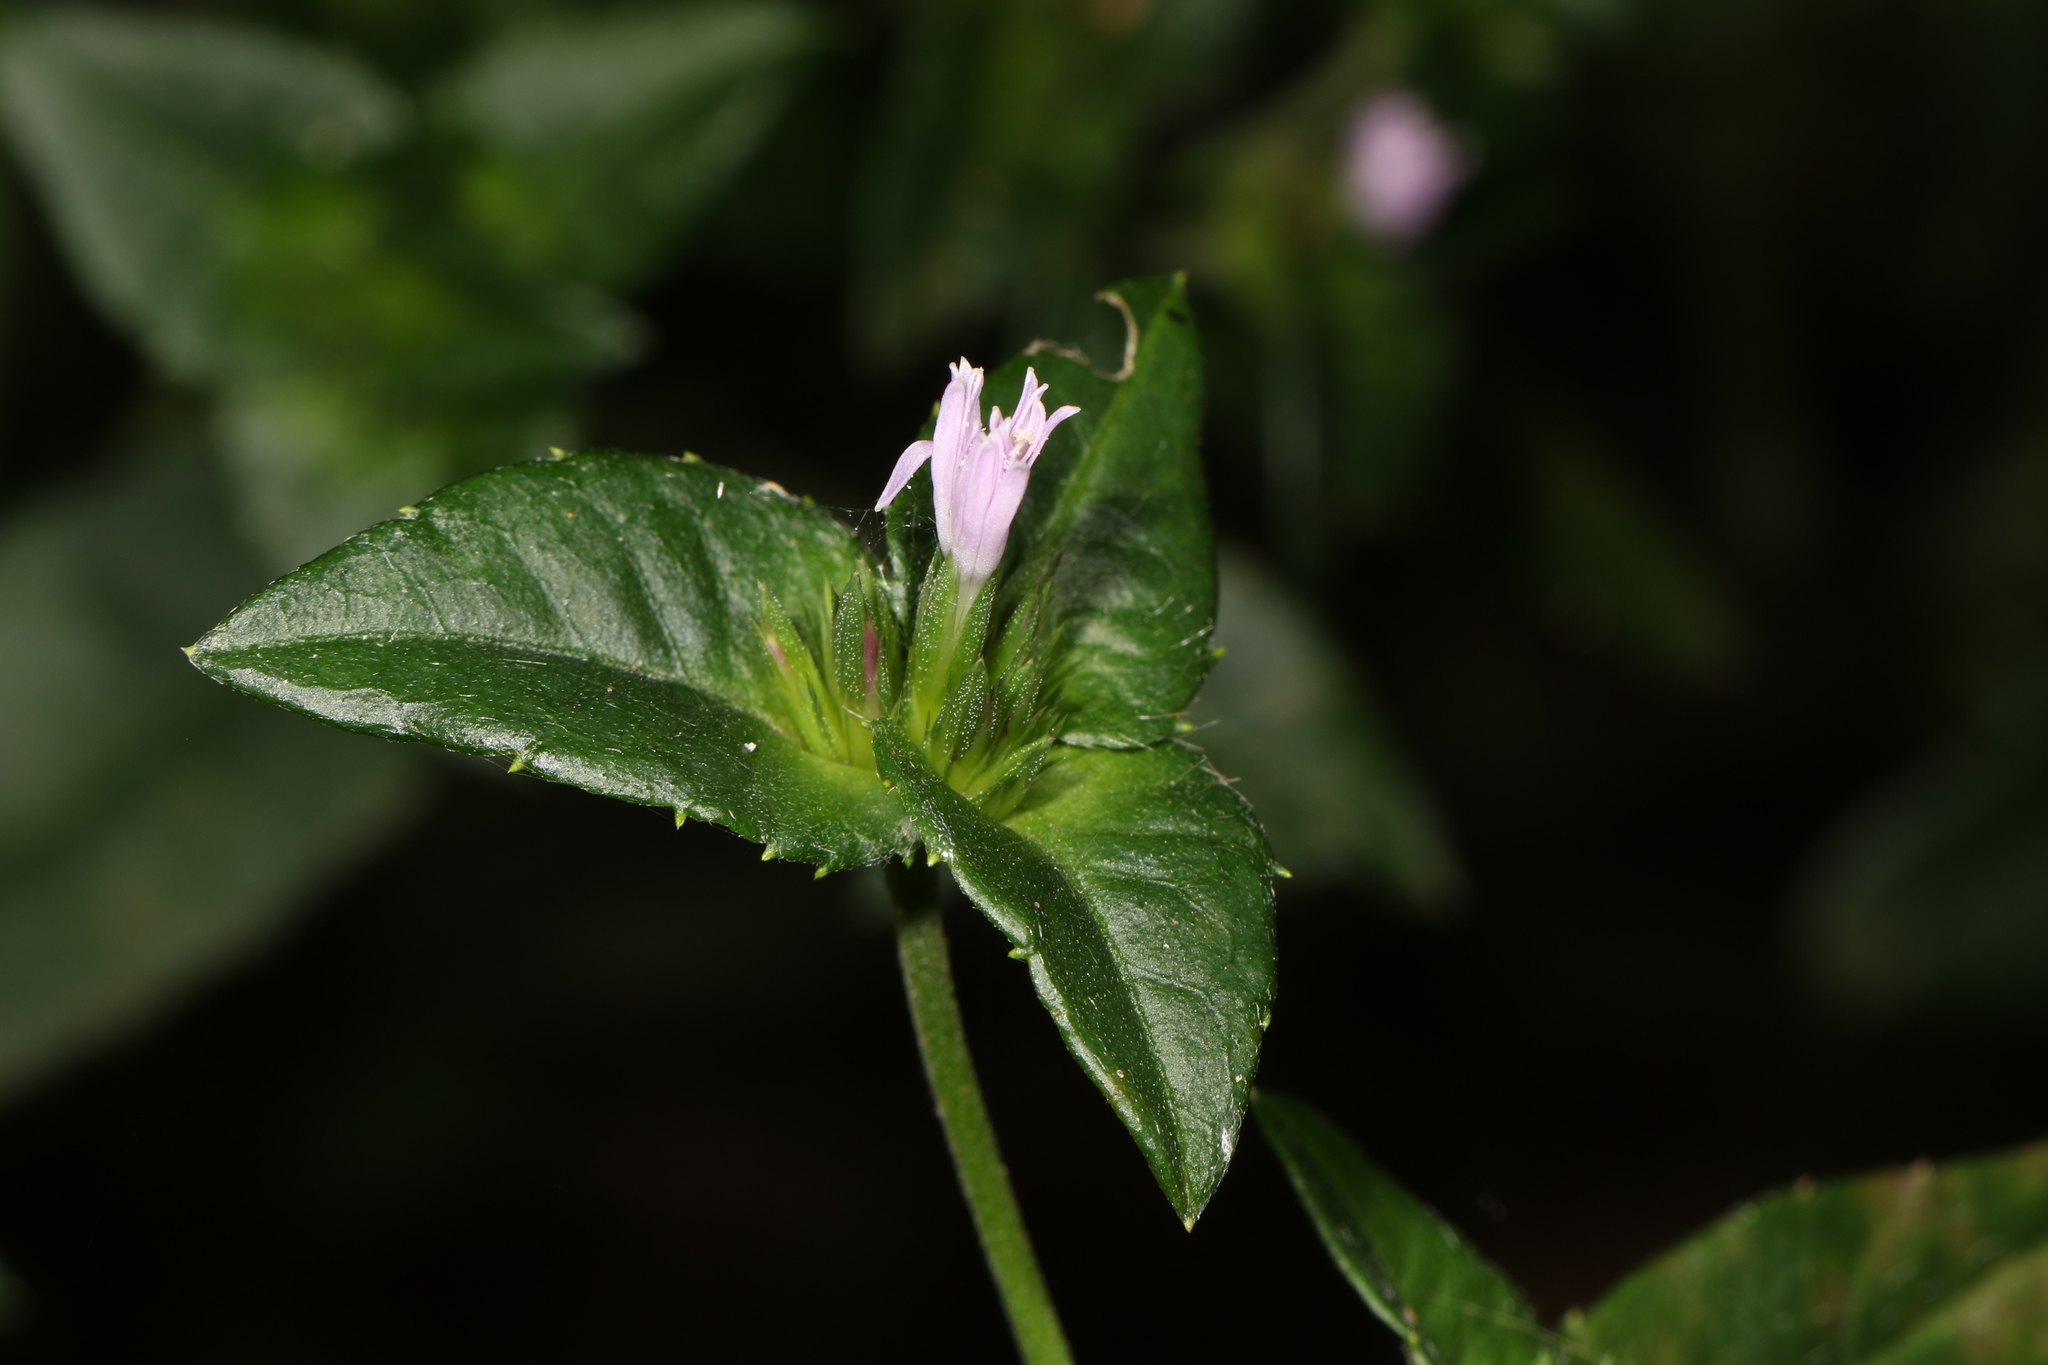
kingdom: Plantae
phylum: Tracheophyta
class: Magnoliopsida
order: Asterales
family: Asteraceae
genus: Elephantopus
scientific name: Elephantopus carolinianus
